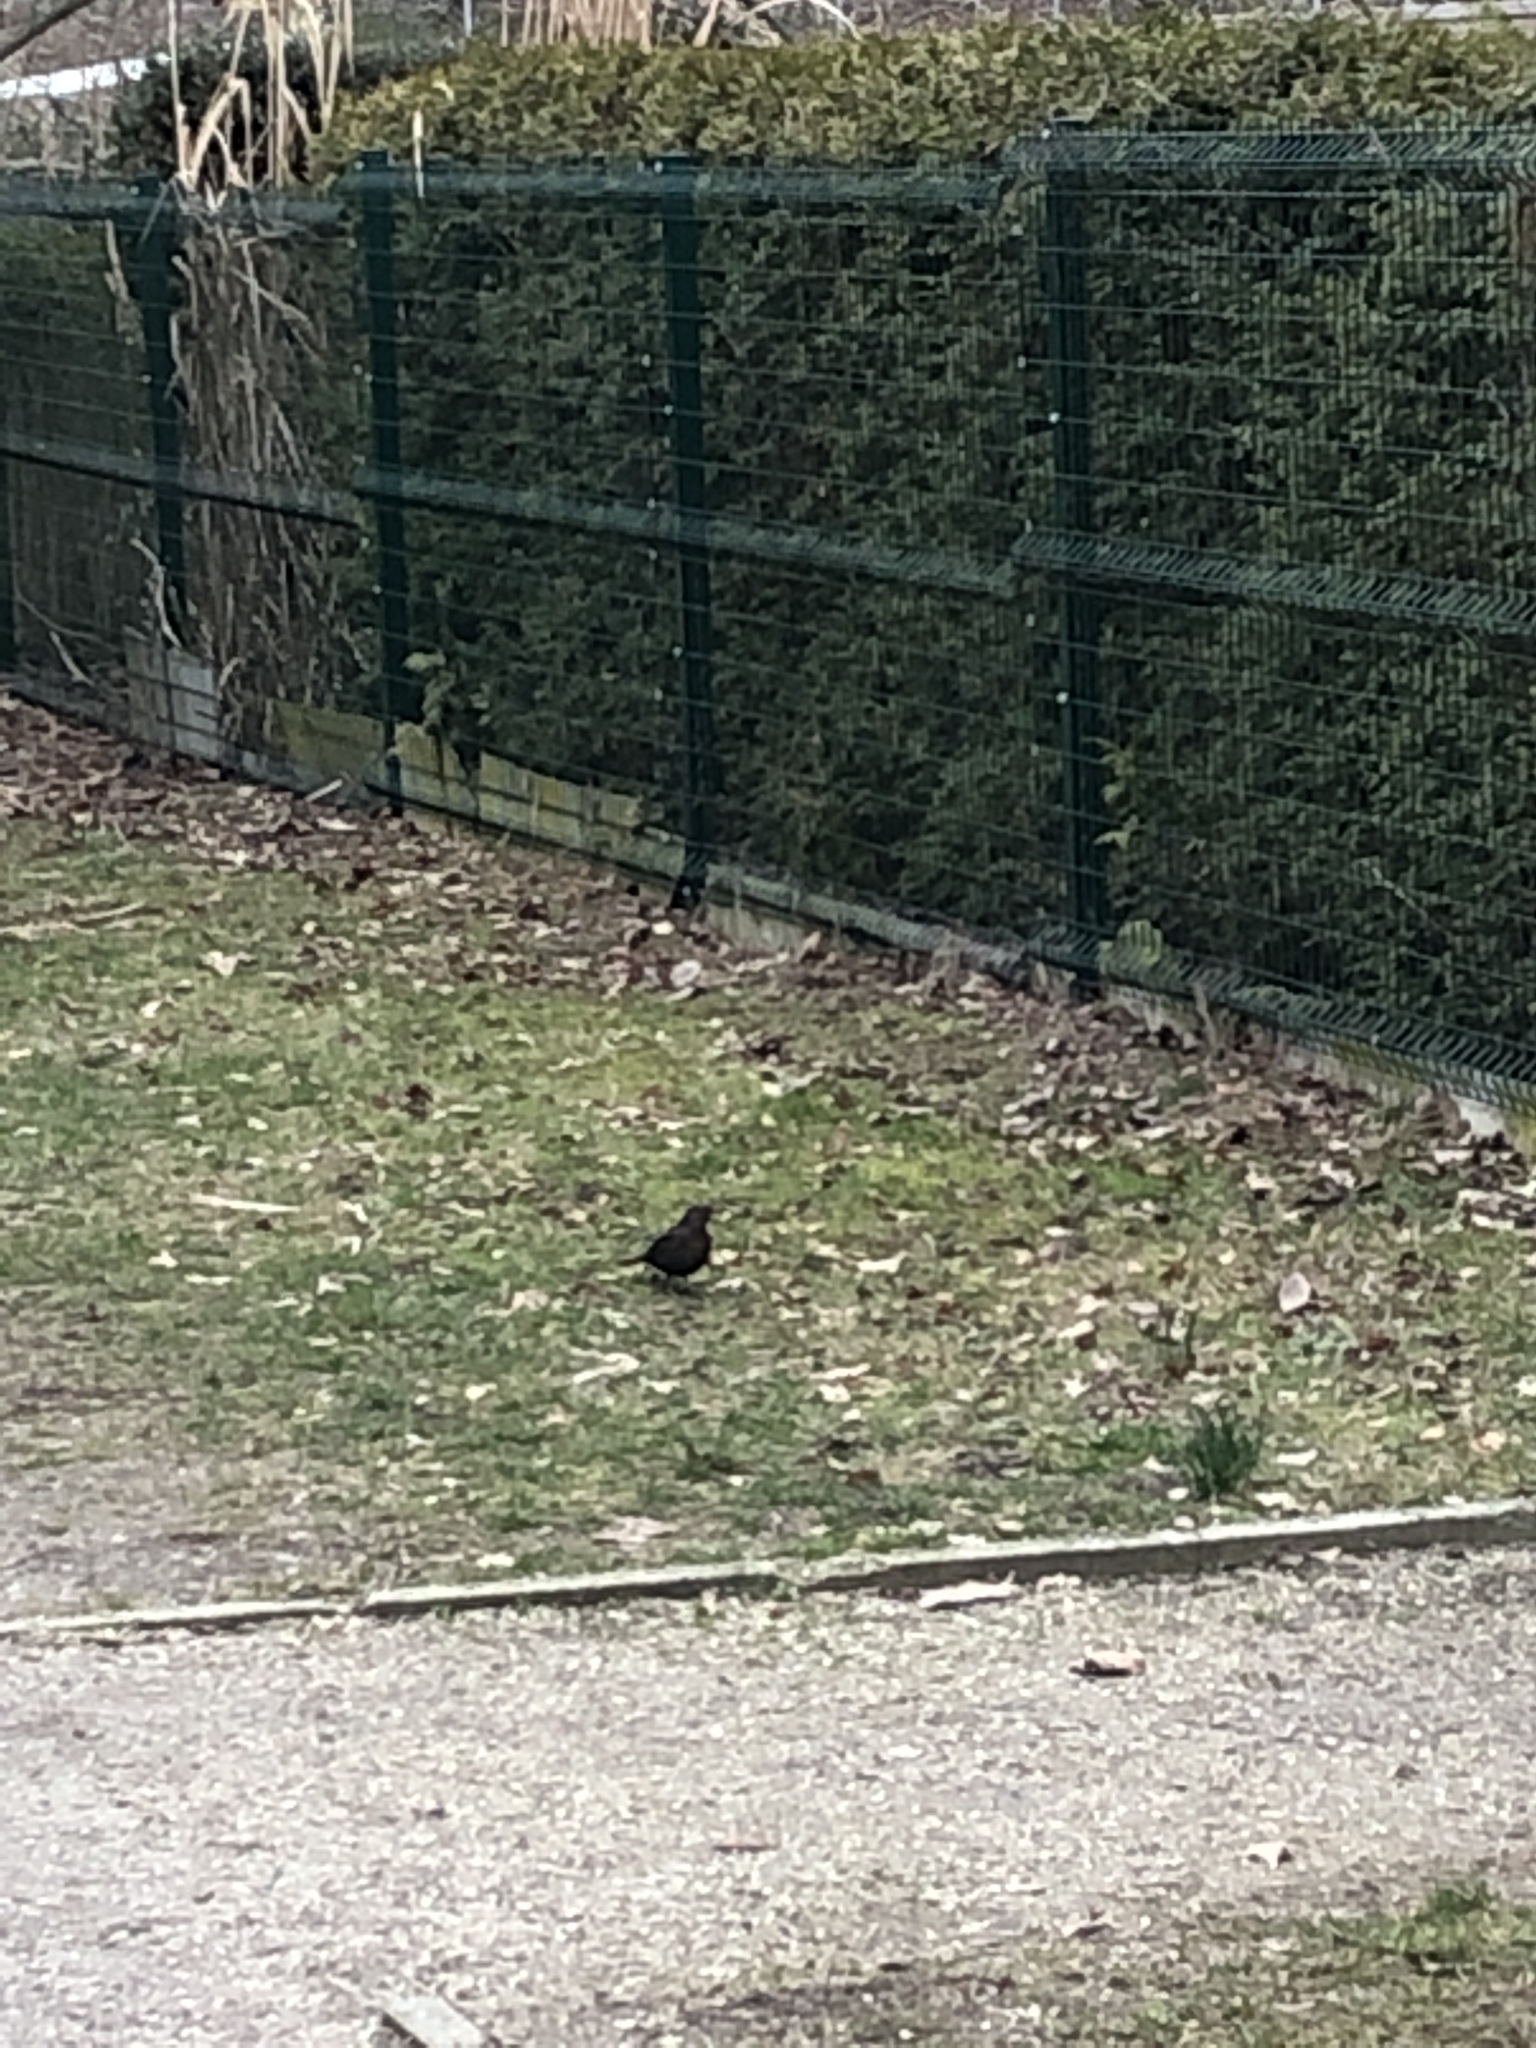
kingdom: Animalia
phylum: Chordata
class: Aves
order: Passeriformes
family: Turdidae
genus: Turdus
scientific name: Turdus merula
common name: Common blackbird
